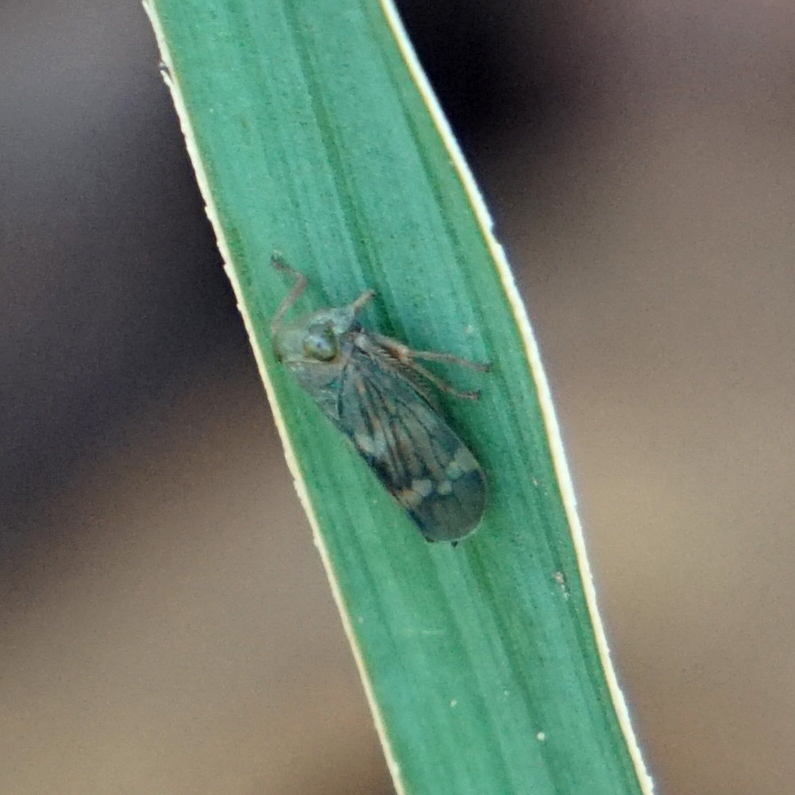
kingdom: Animalia
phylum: Arthropoda
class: Insecta
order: Hemiptera
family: Cicadellidae
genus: Jikradia
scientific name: Jikradia olitoria
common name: Coppery leafhopper
